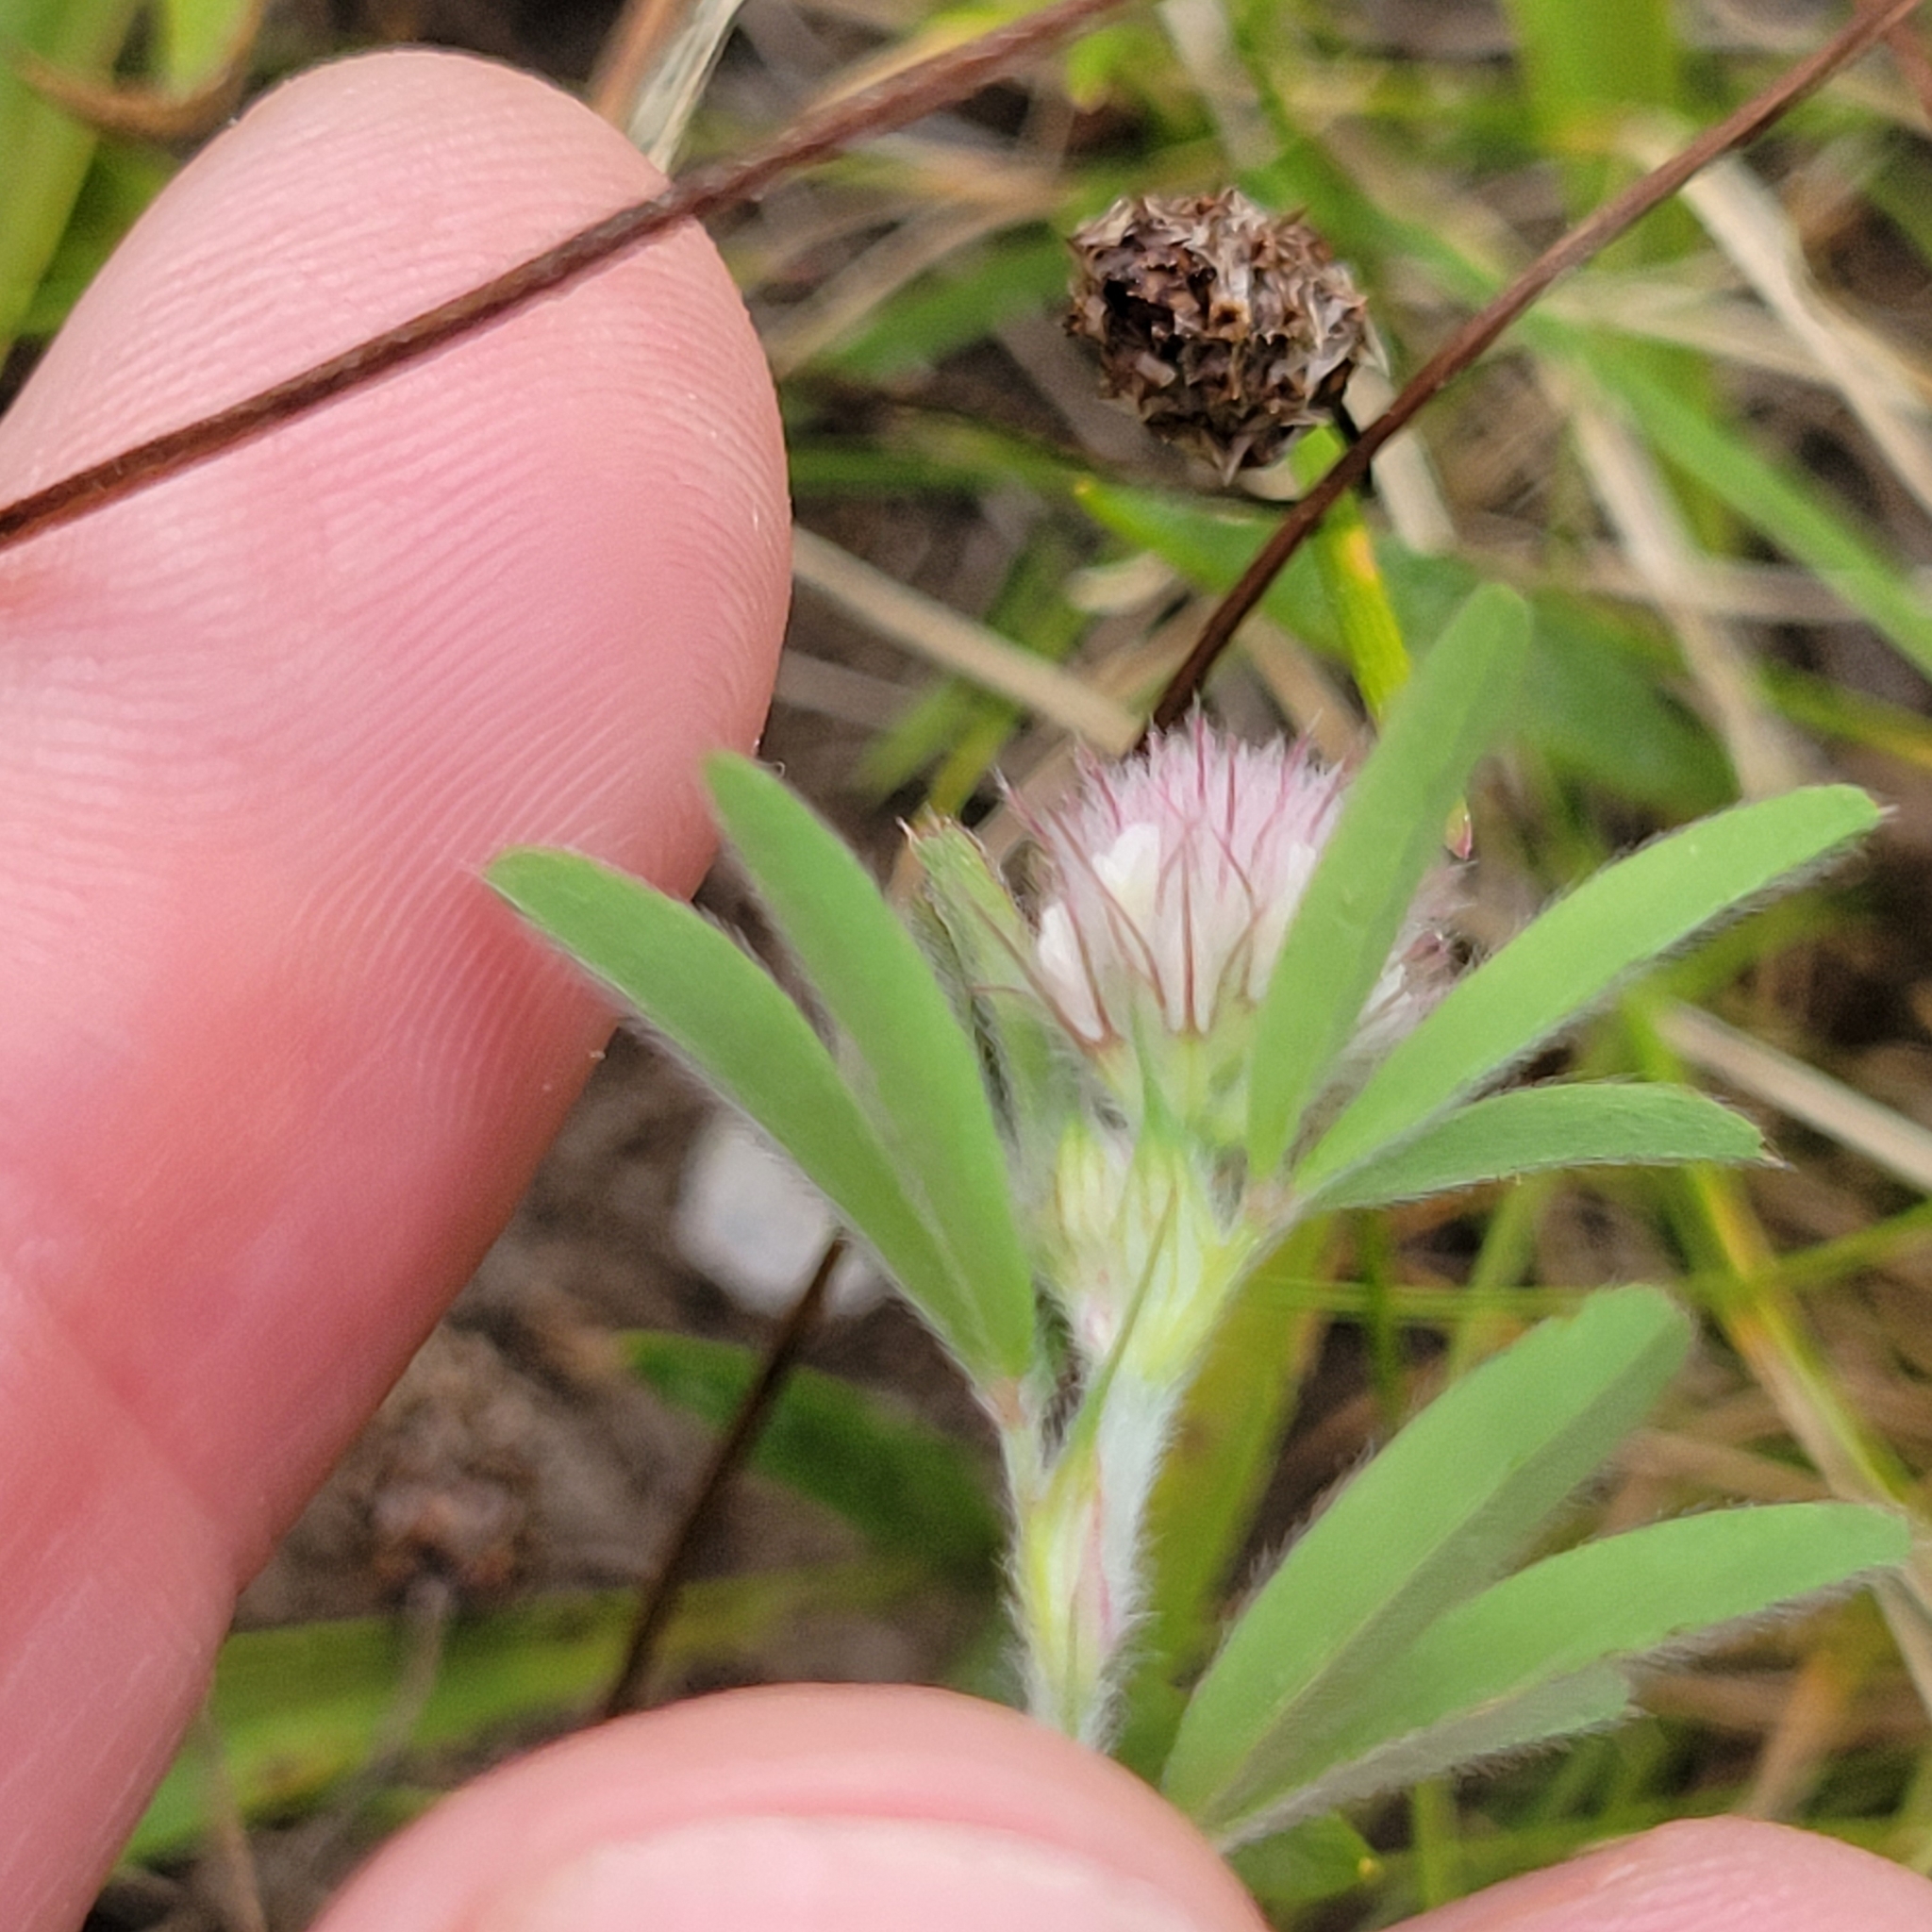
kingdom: Plantae
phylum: Tracheophyta
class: Magnoliopsida
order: Fabales
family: Fabaceae
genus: Trifolium
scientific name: Trifolium arvense
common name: Hare's-foot clover
